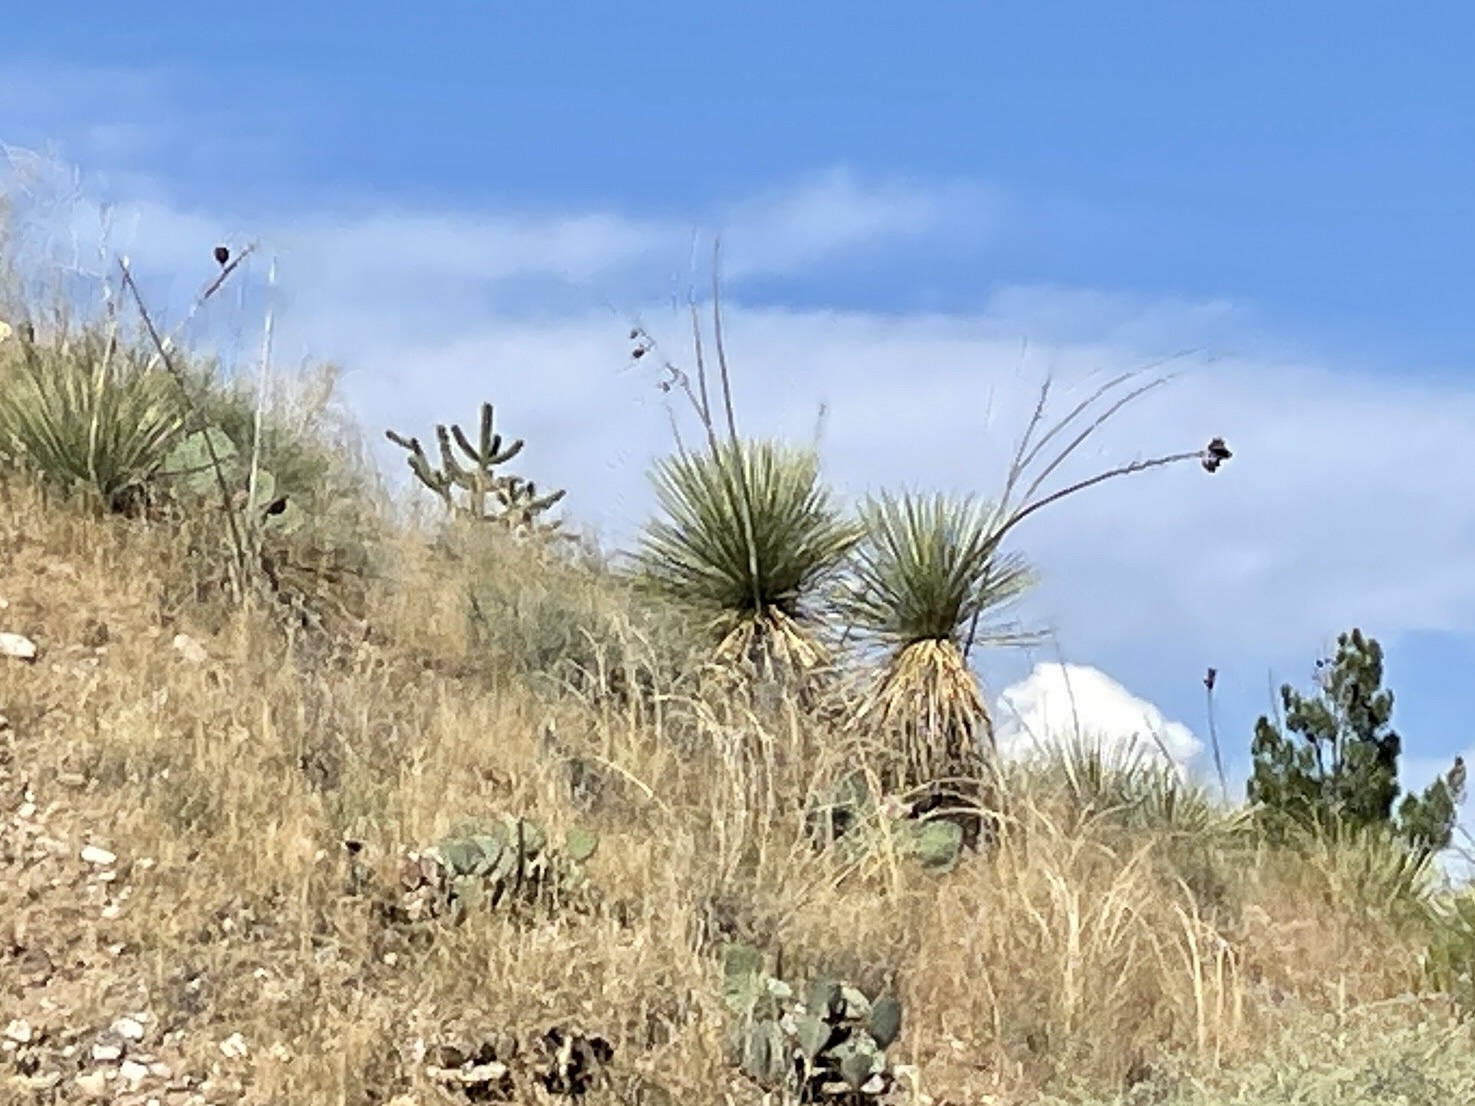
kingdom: Plantae
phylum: Tracheophyta
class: Liliopsida
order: Asparagales
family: Asparagaceae
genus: Yucca
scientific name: Yucca elata
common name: Palmella
